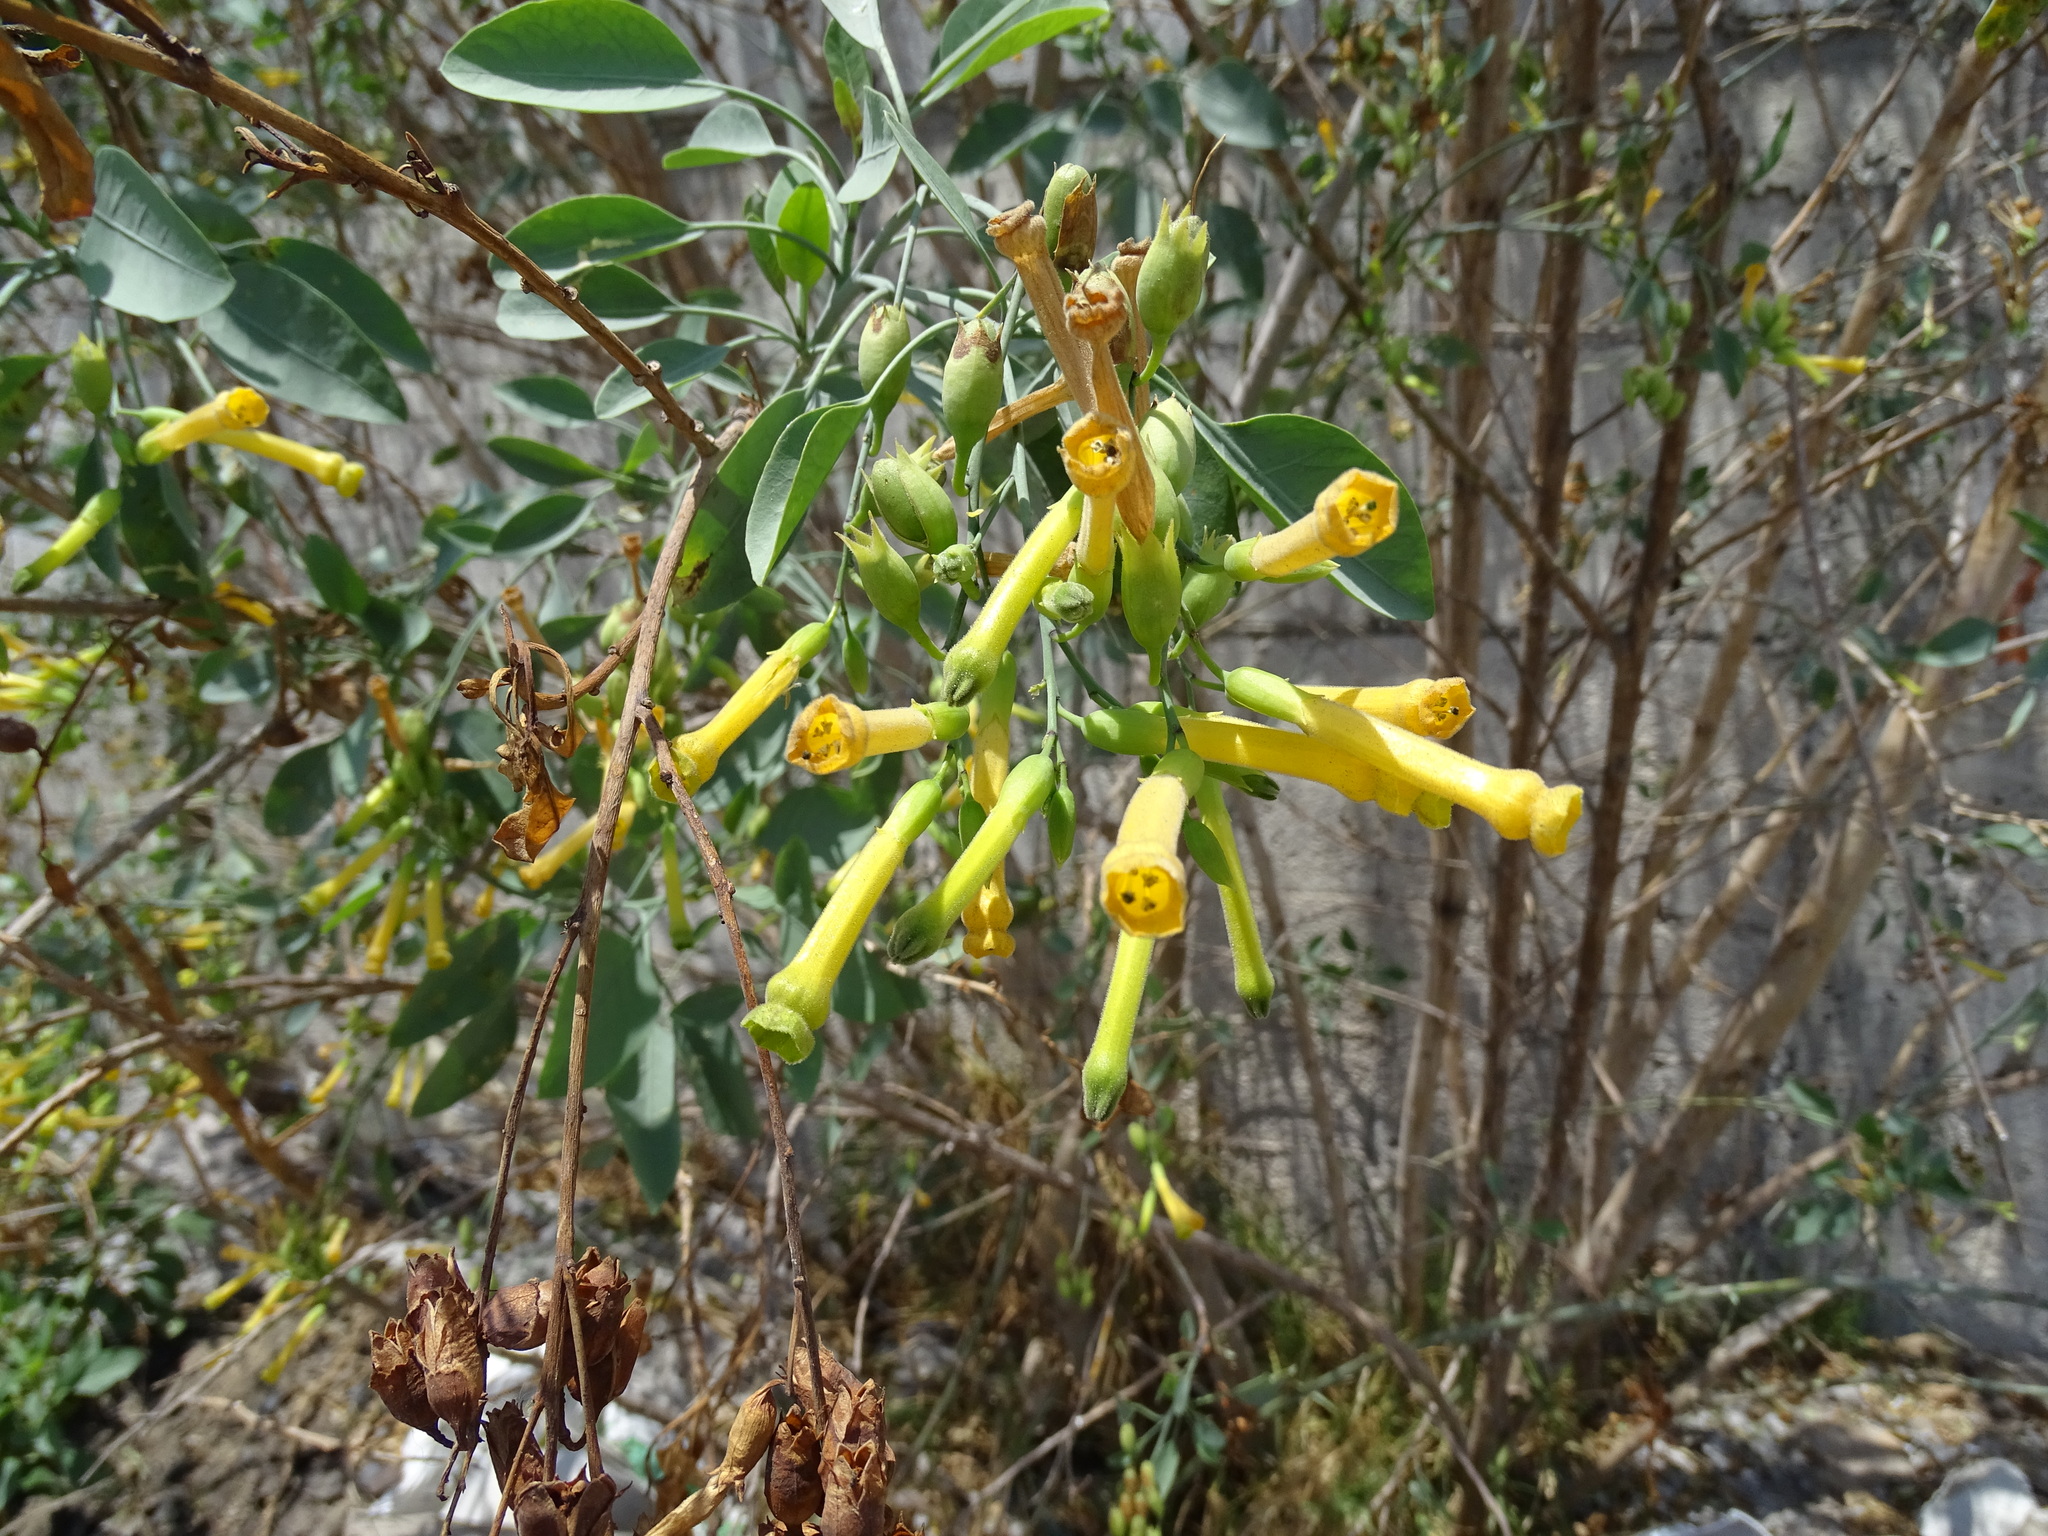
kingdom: Plantae
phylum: Tracheophyta
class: Magnoliopsida
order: Solanales
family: Solanaceae
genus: Nicotiana
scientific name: Nicotiana glauca
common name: Tree tobacco
